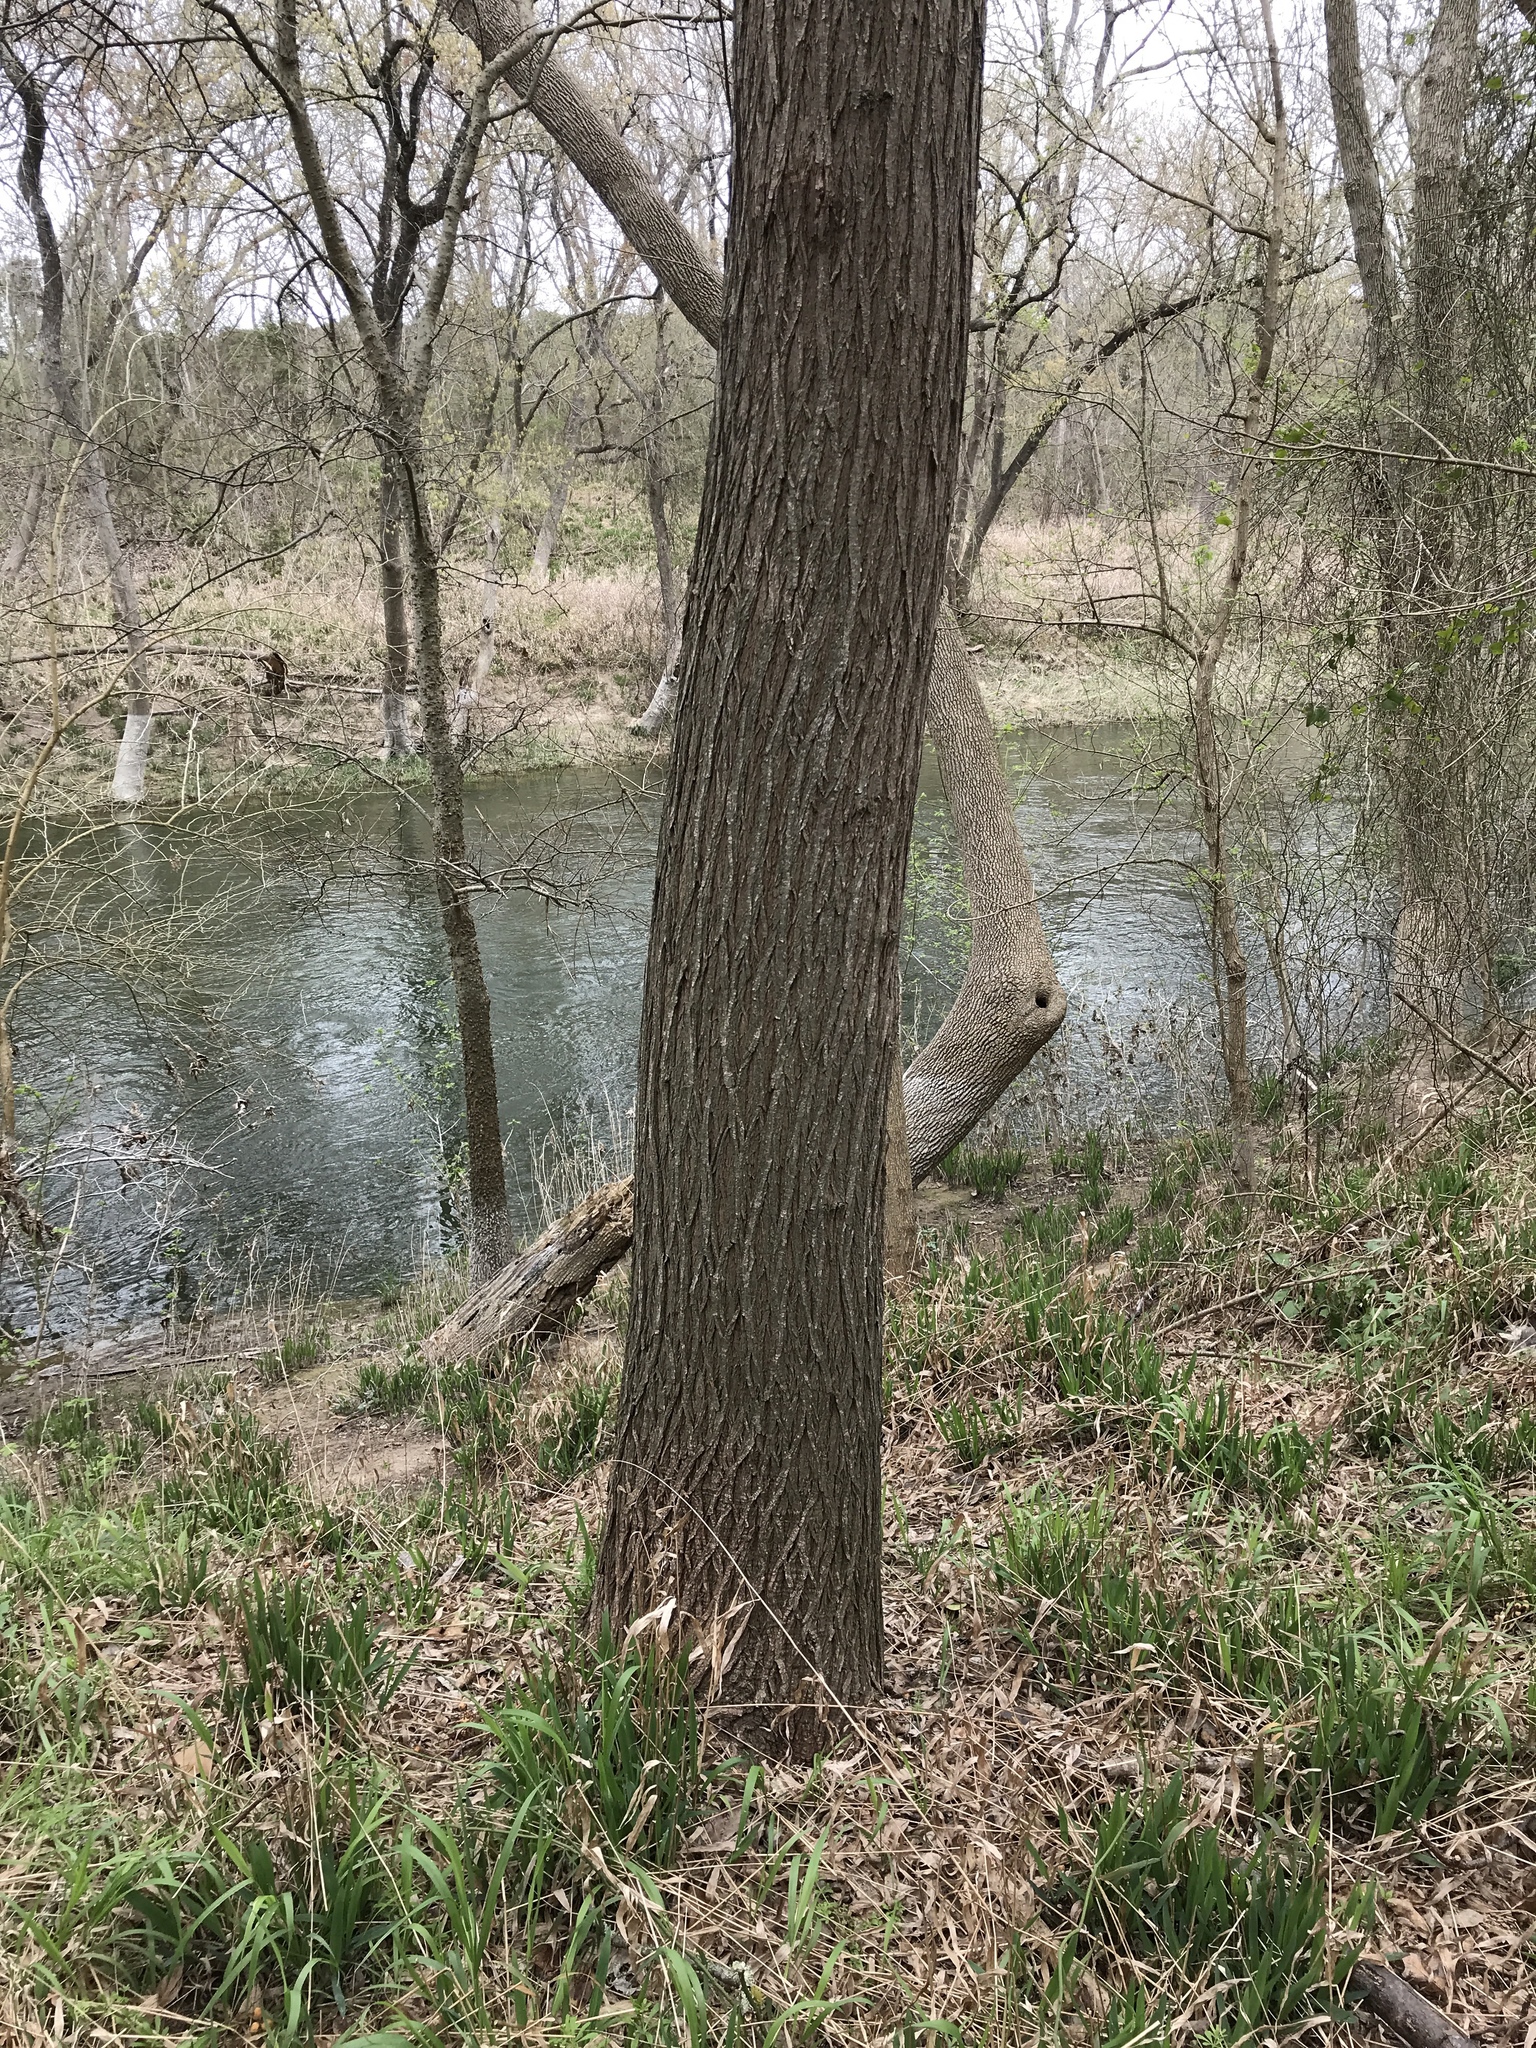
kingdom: Plantae
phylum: Tracheophyta
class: Magnoliopsida
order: Sapindales
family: Meliaceae
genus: Melia
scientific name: Melia azedarach
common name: Chinaberrytree
